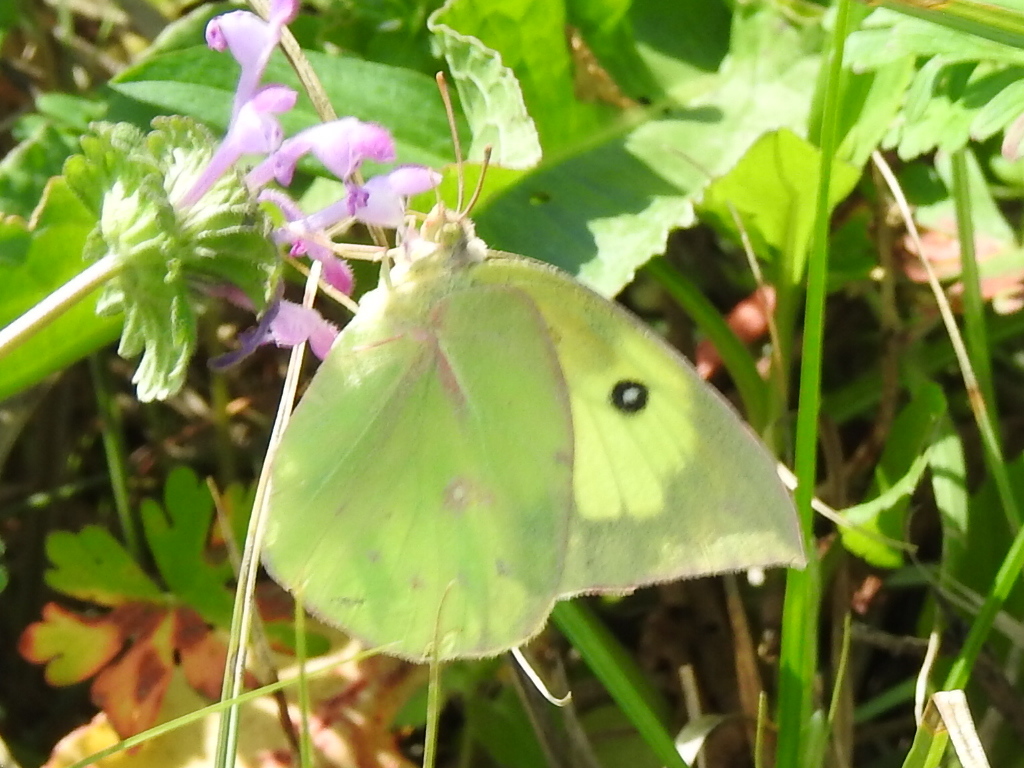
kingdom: Animalia
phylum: Arthropoda
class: Insecta
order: Lepidoptera
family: Pieridae
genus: Zerene
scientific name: Zerene cesonia
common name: Southern dogface
